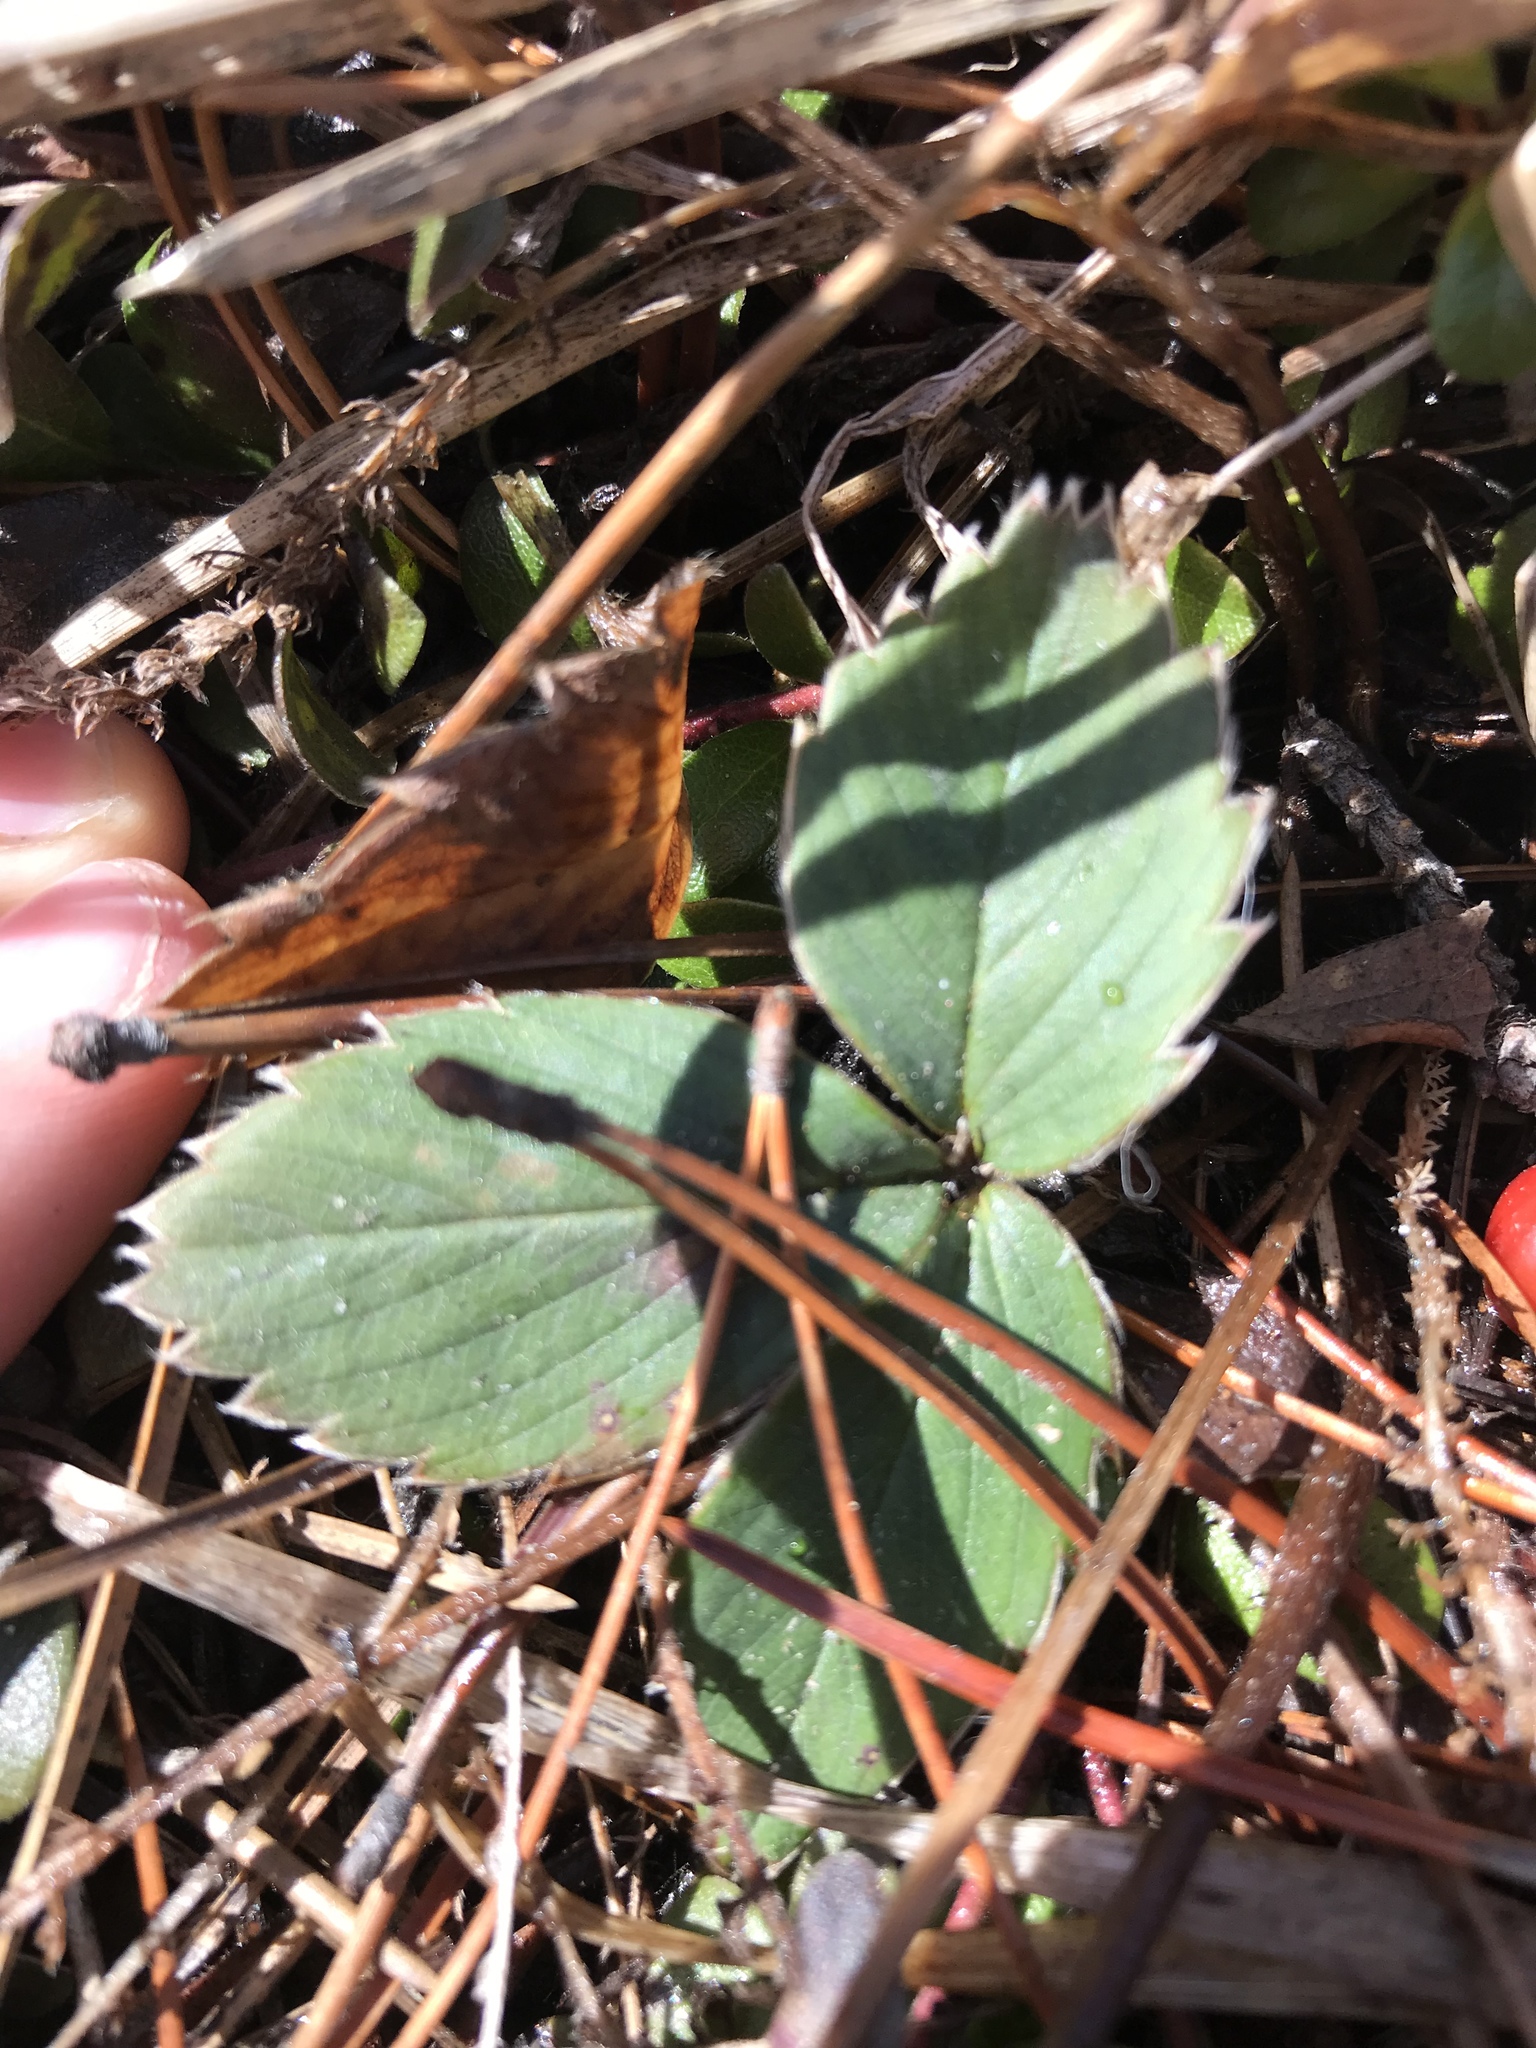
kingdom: Plantae
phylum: Tracheophyta
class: Magnoliopsida
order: Rosales
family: Rosaceae
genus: Fragaria
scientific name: Fragaria virginiana
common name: Thickleaved wild strawberry
